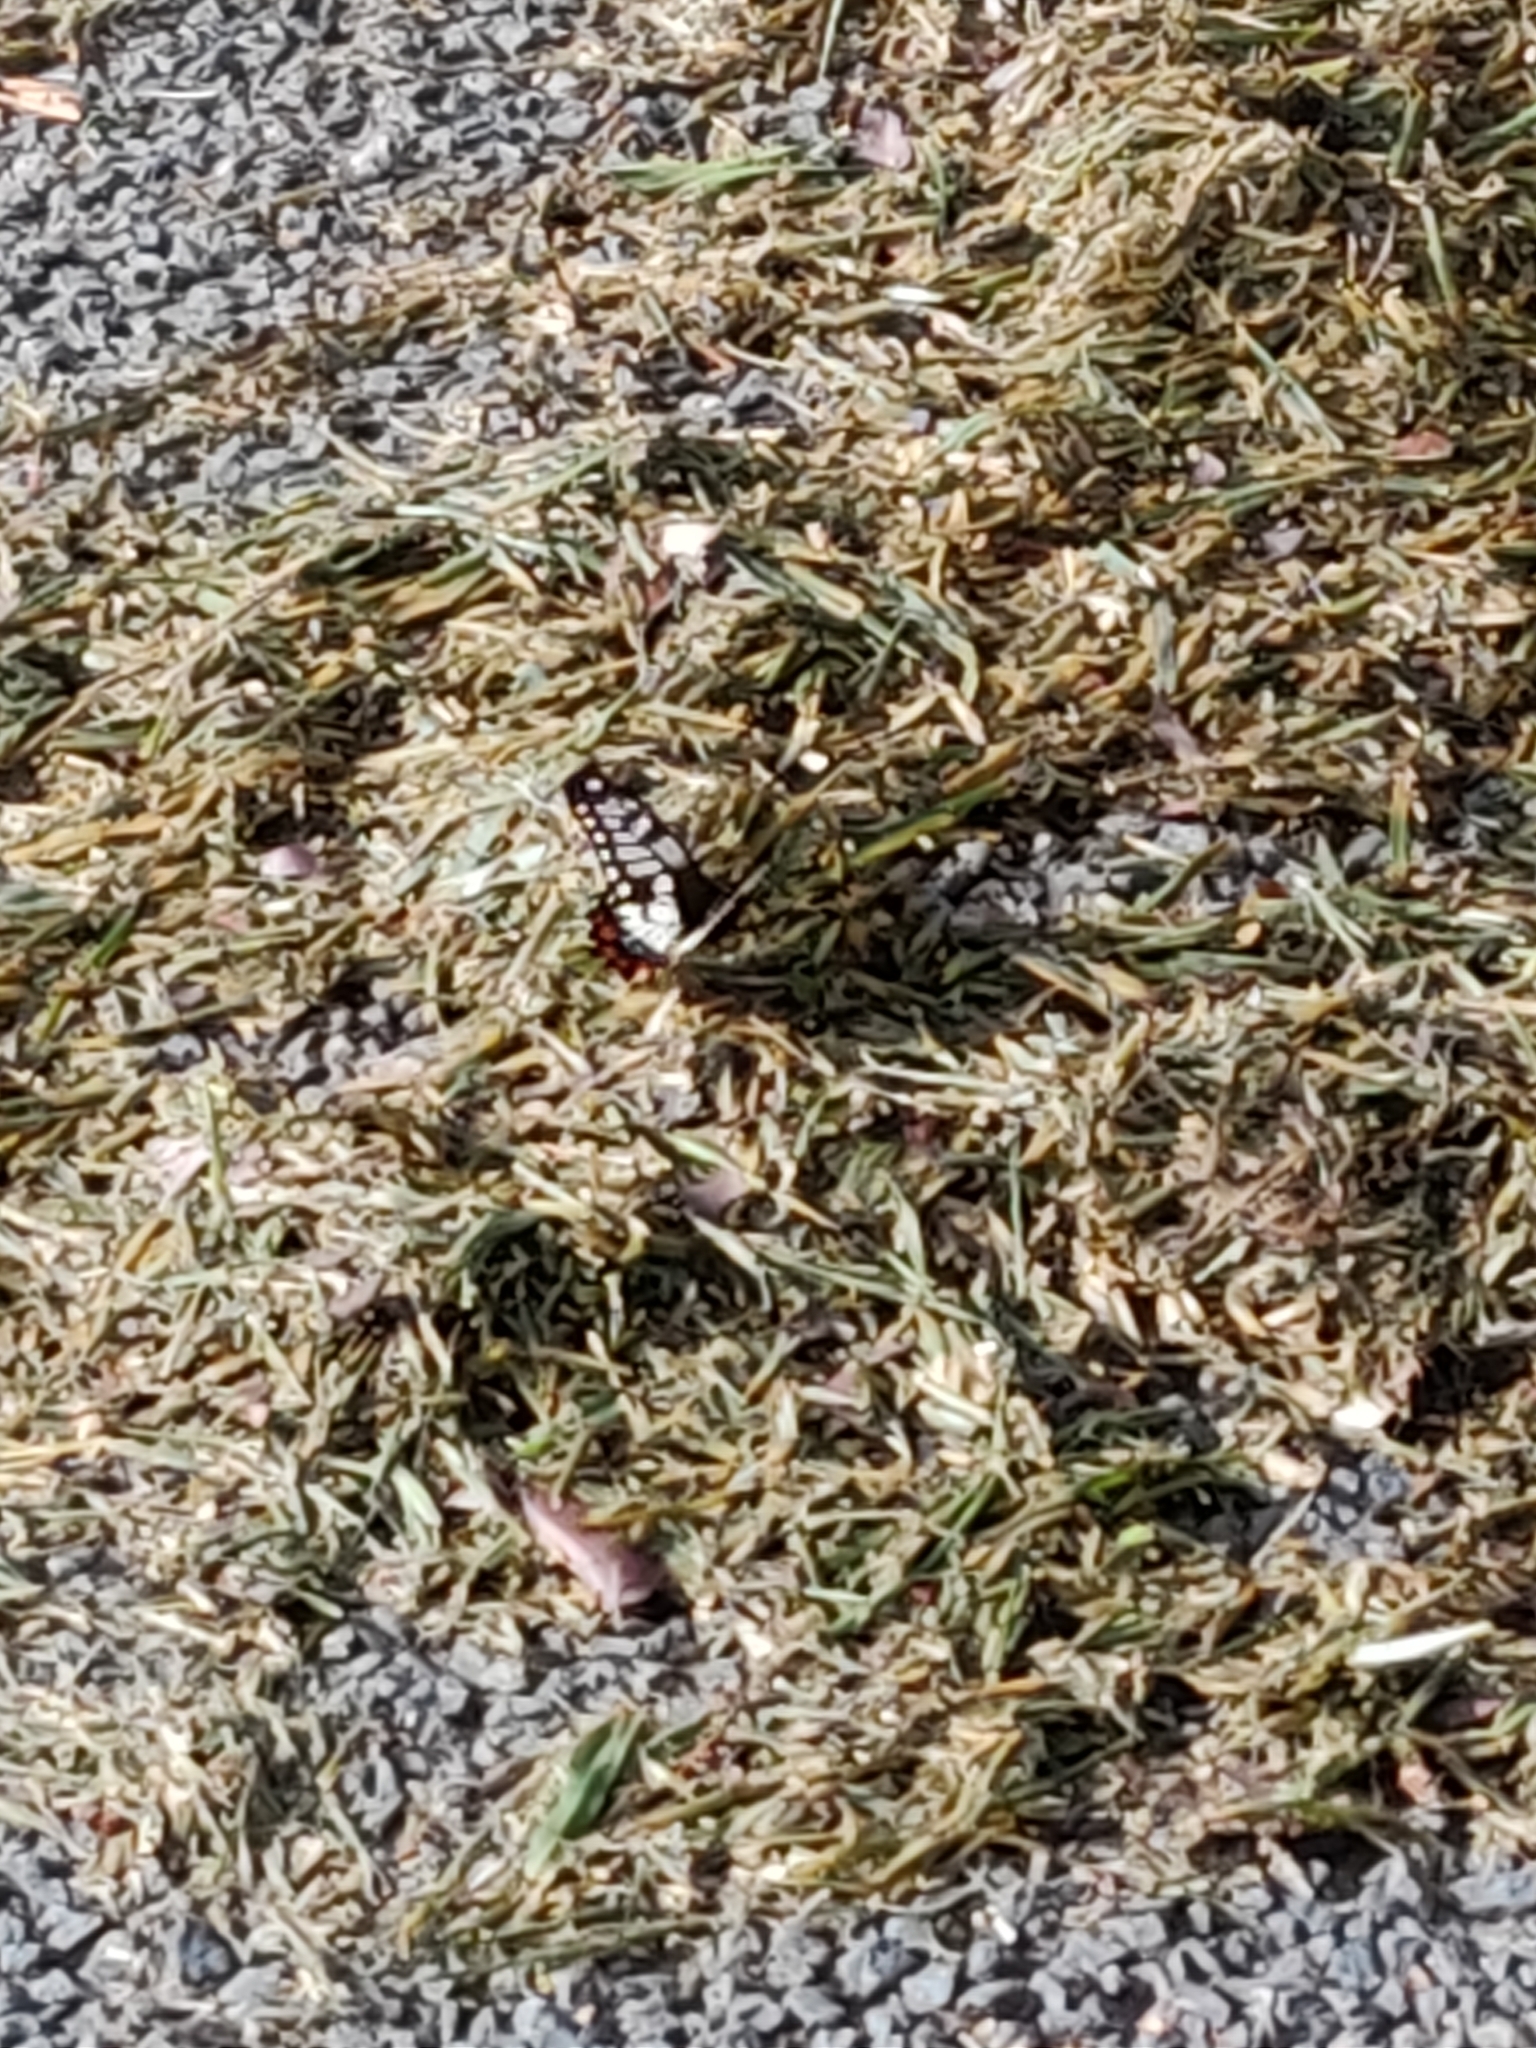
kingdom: Animalia
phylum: Arthropoda
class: Insecta
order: Lepidoptera
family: Papilionidae
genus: Papilio
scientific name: Papilio anactus
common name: Dingy swallowtail
